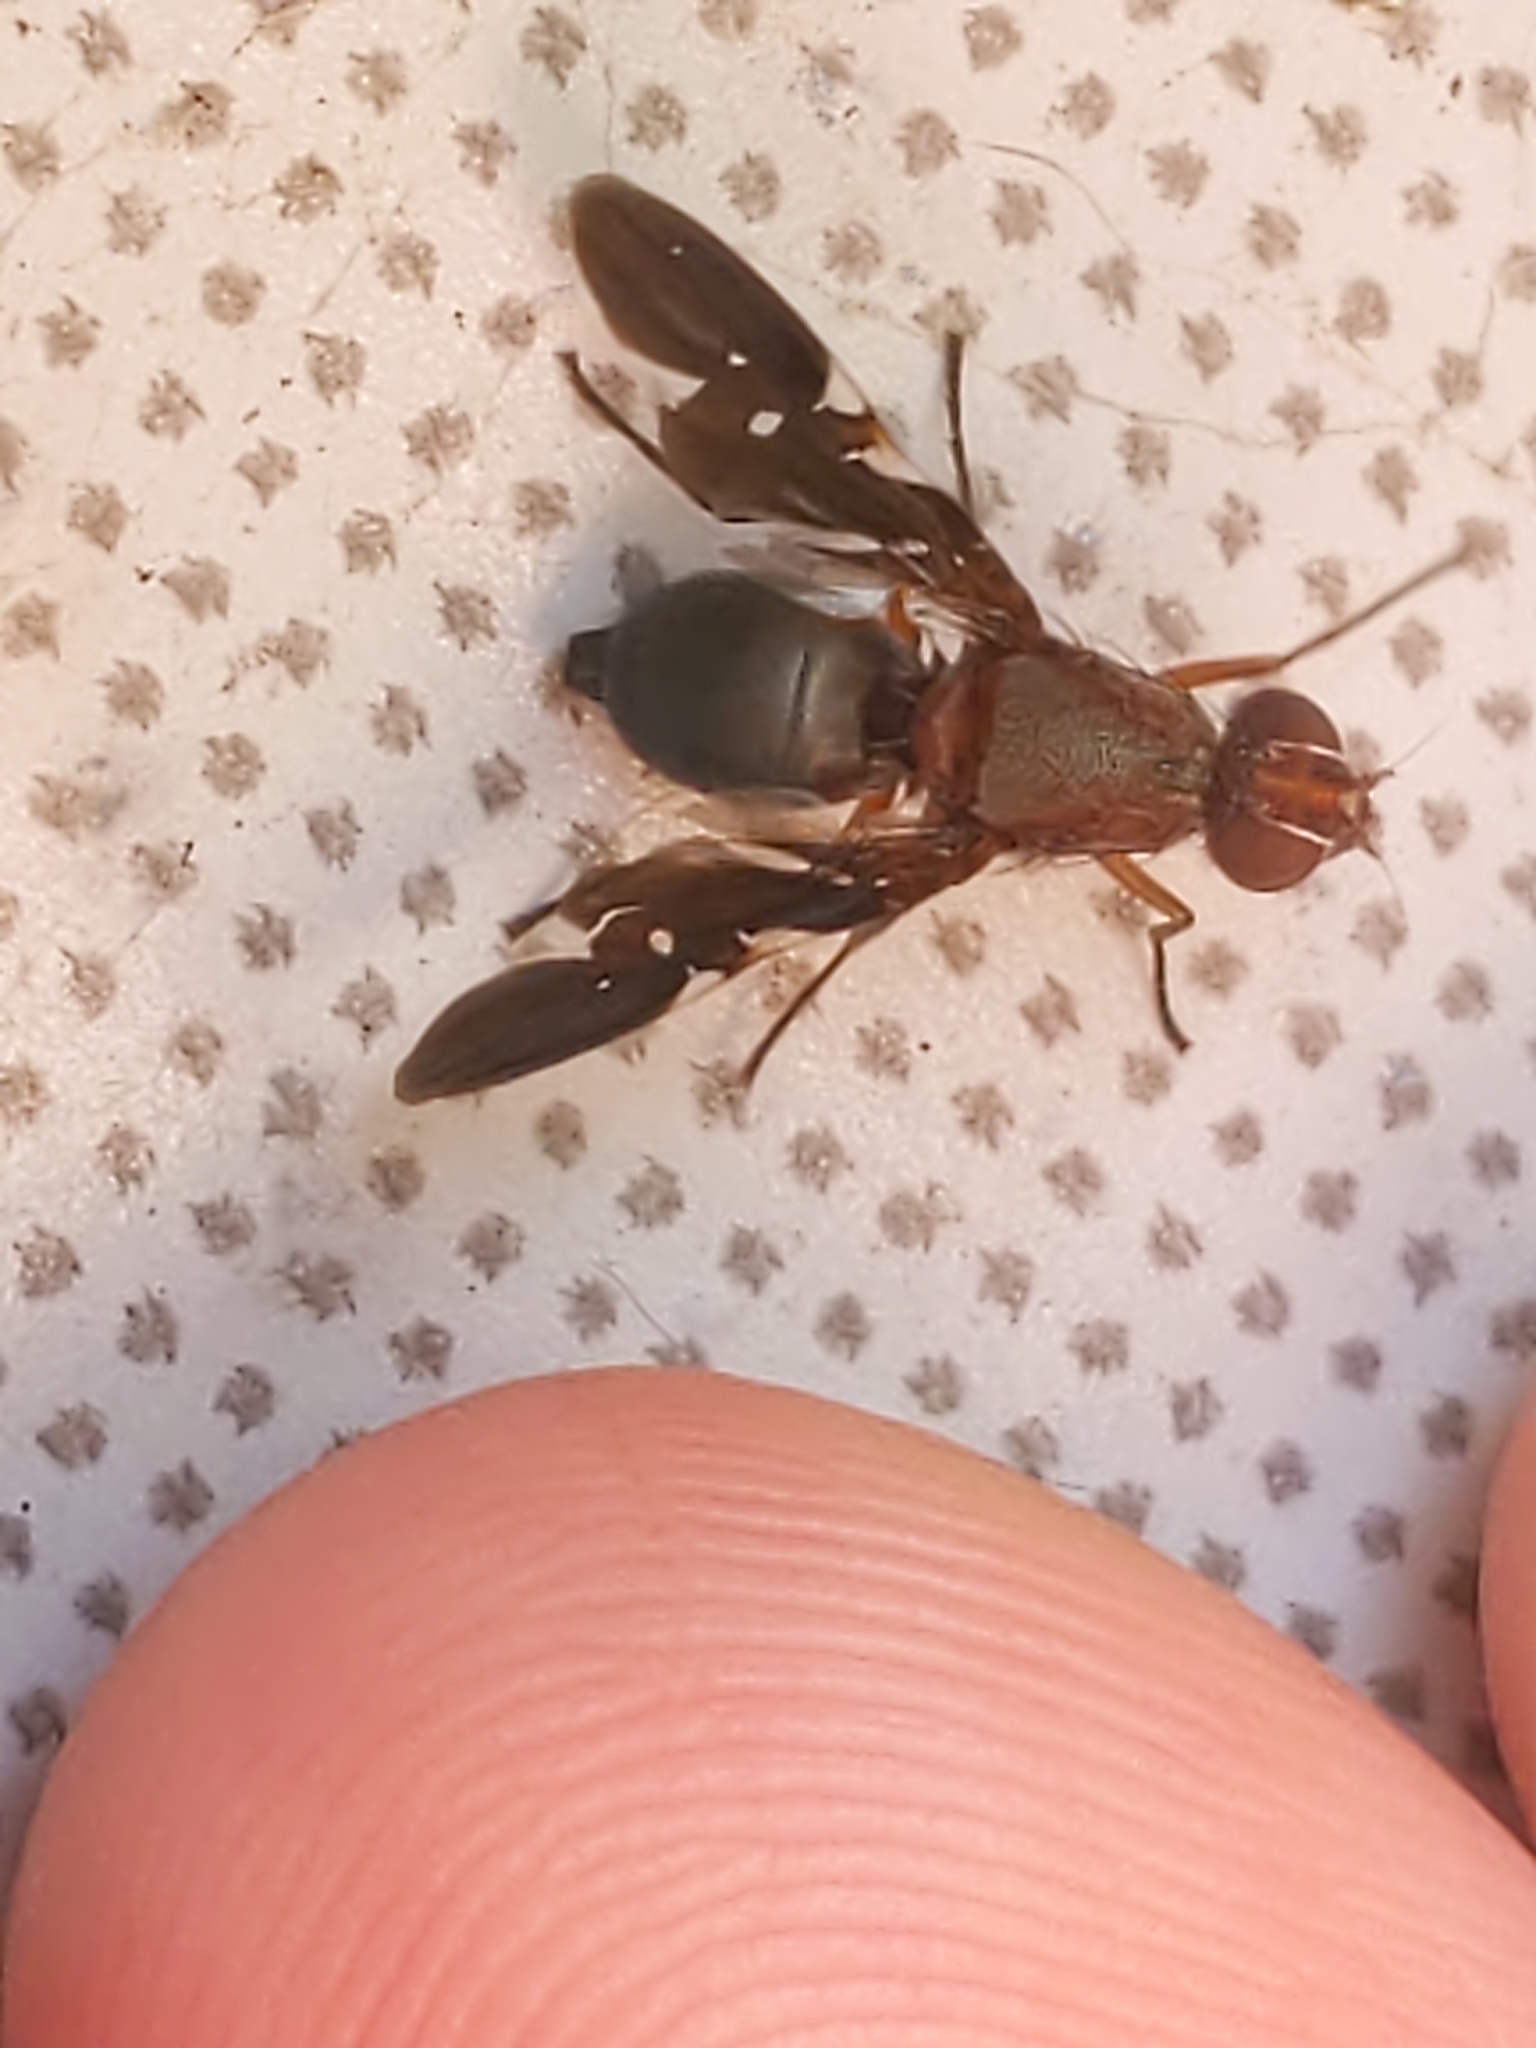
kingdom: Animalia
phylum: Arthropoda
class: Insecta
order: Diptera
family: Ulidiidae
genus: Delphinia
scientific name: Delphinia picta
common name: Common picture-winged fly
